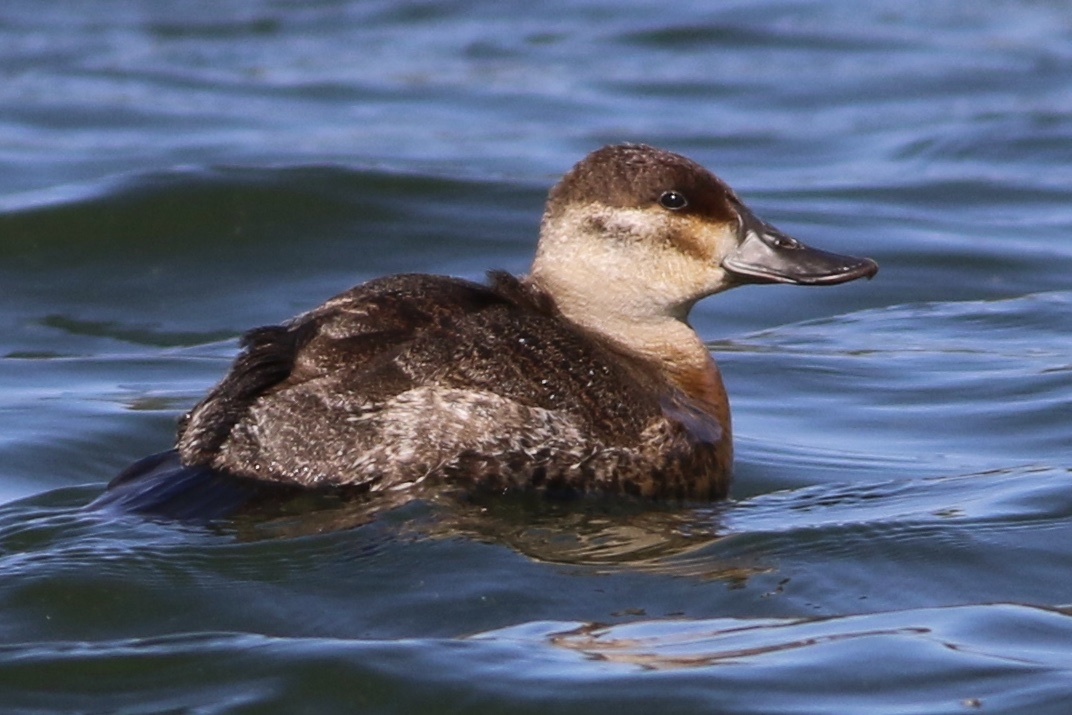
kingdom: Animalia
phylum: Chordata
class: Aves
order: Anseriformes
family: Anatidae
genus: Oxyura
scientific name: Oxyura jamaicensis
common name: Ruddy duck
